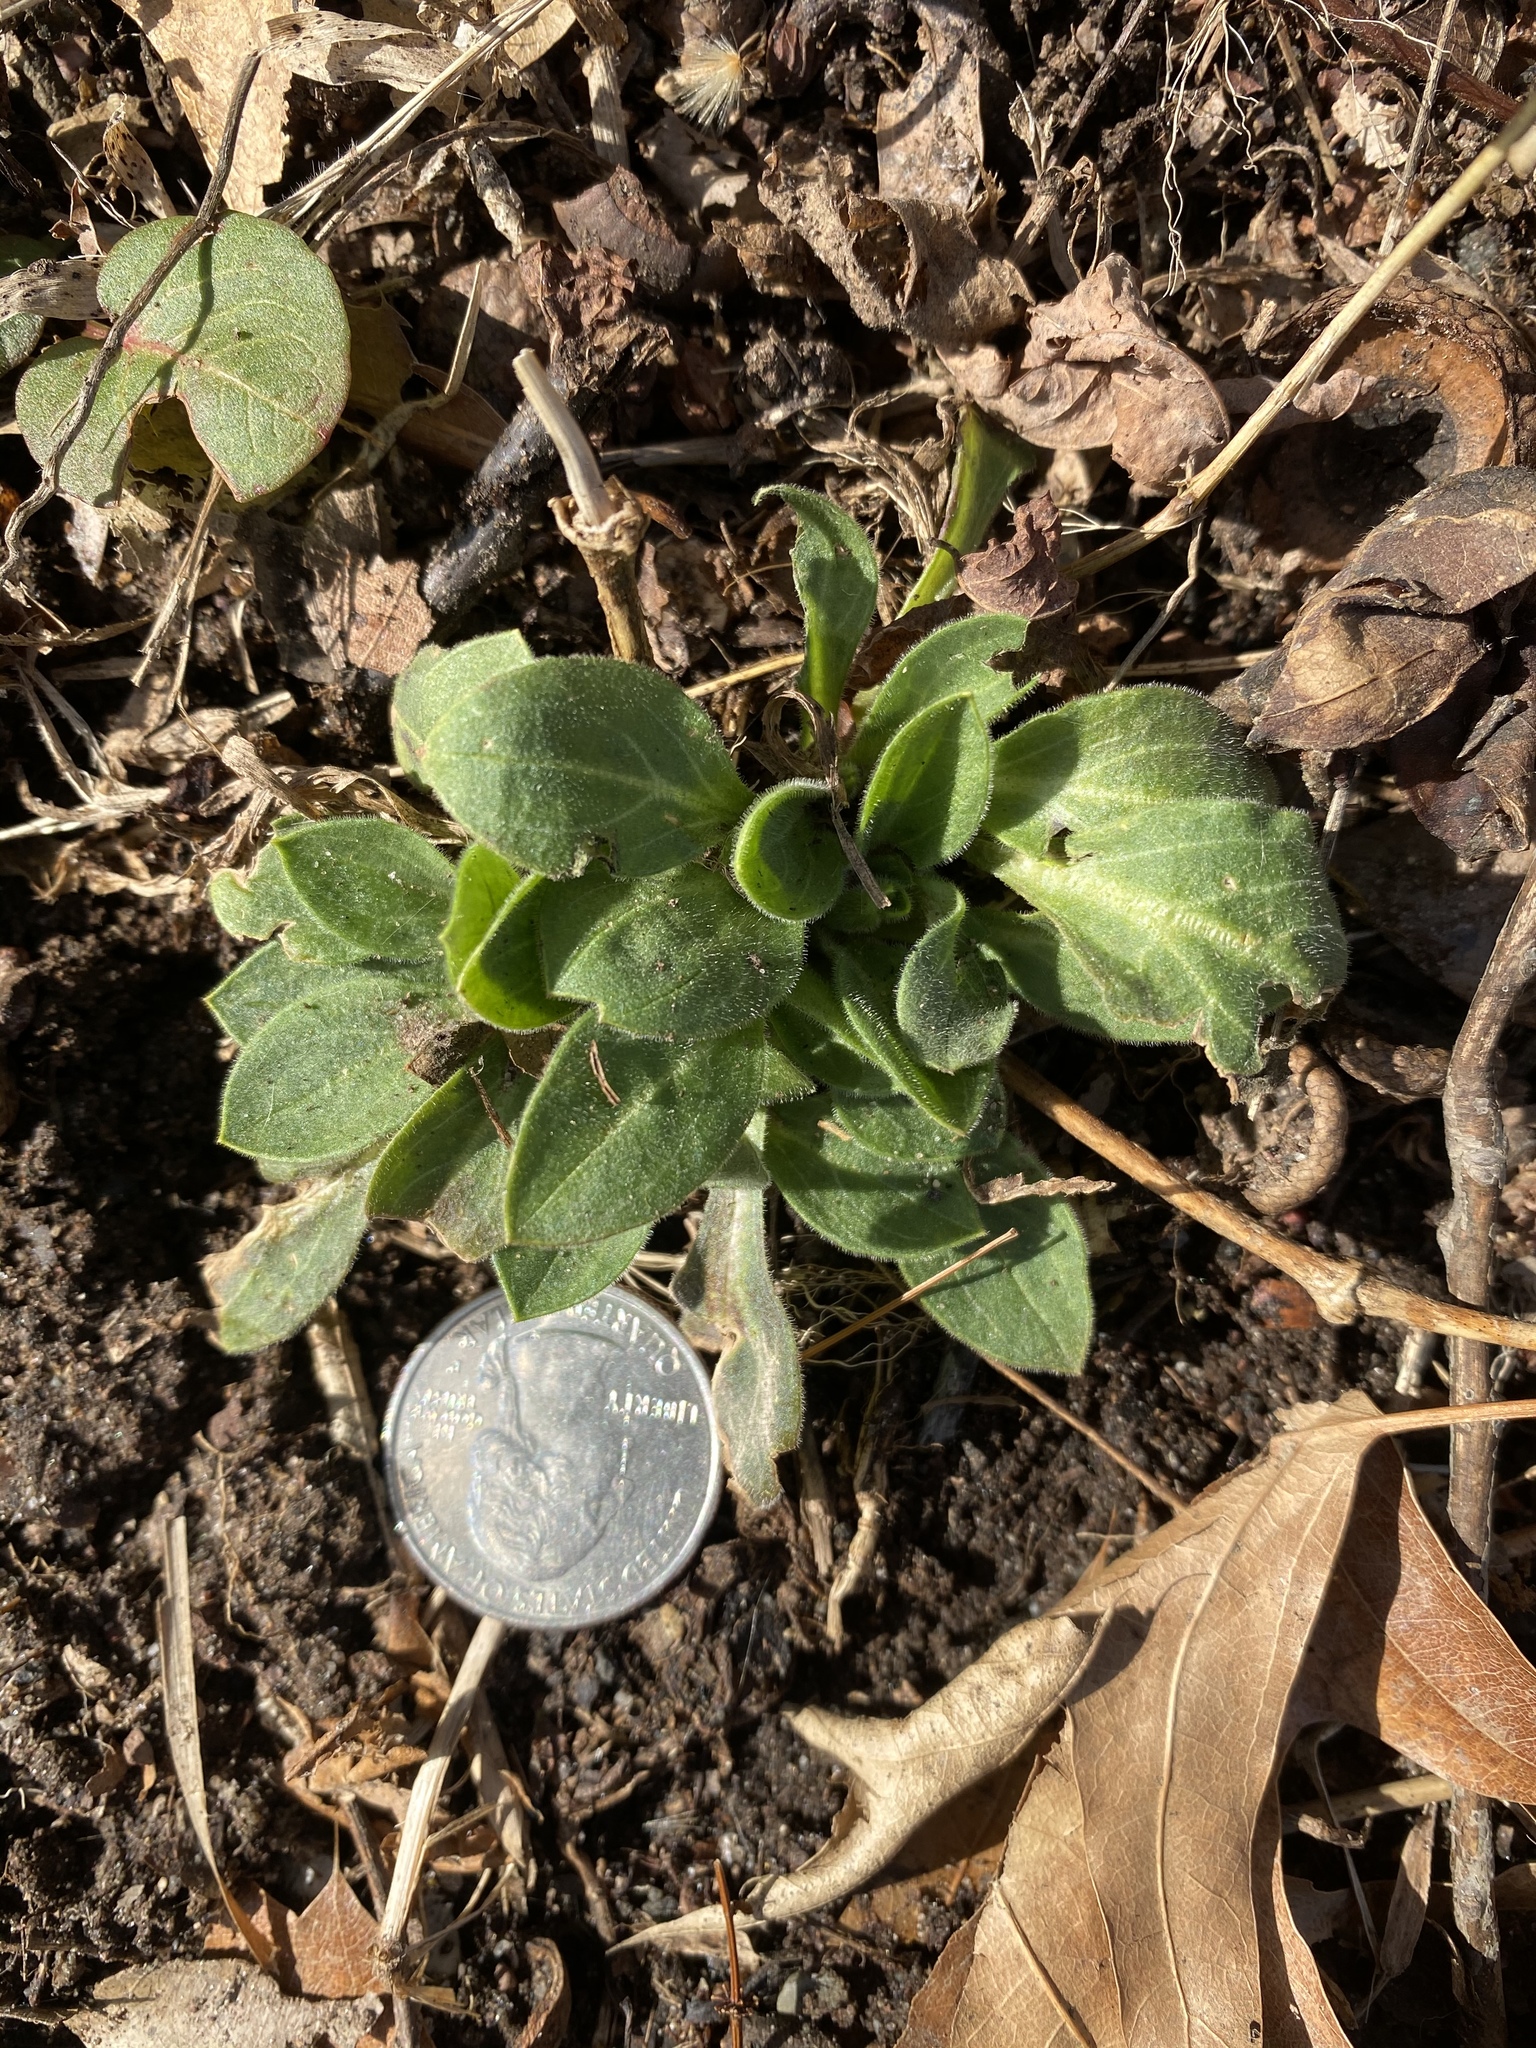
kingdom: Plantae
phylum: Tracheophyta
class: Magnoliopsida
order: Caryophyllales
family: Caryophyllaceae
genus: Silene
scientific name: Silene latifolia
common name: White campion
